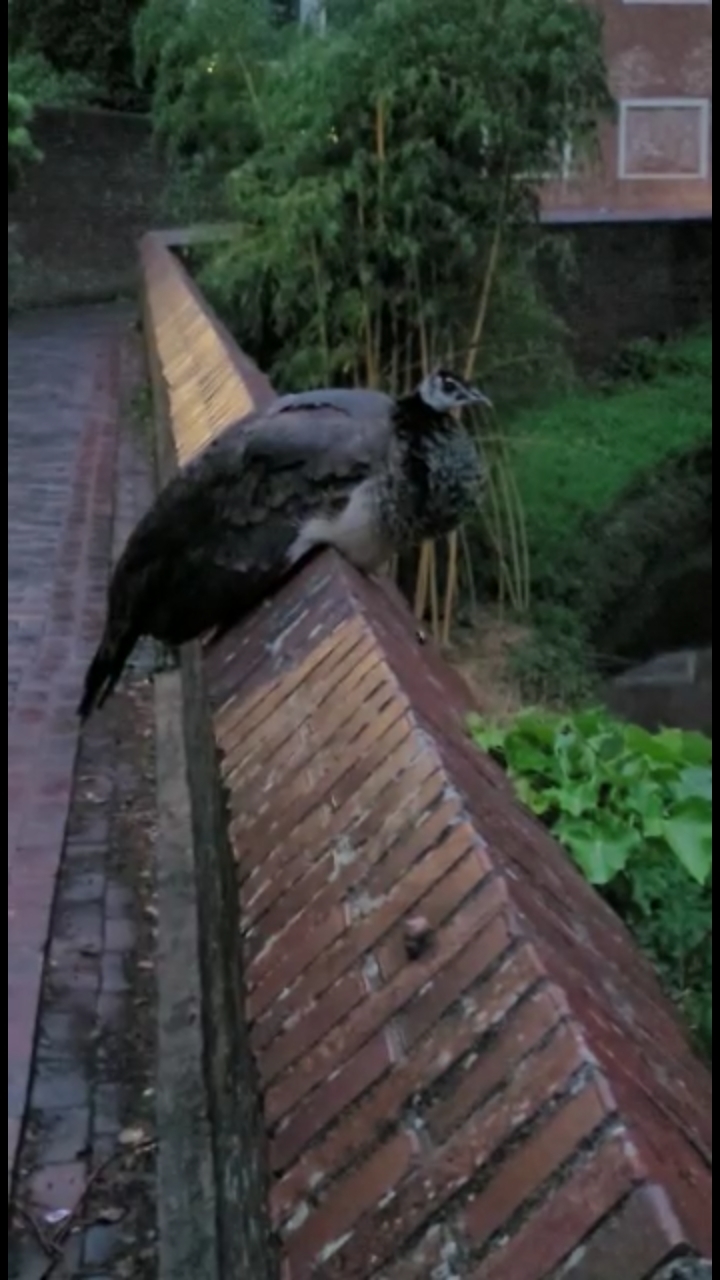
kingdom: Animalia
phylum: Chordata
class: Aves
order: Galliformes
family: Phasianidae
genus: Pavo
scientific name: Pavo cristatus
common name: Indian peafowl
